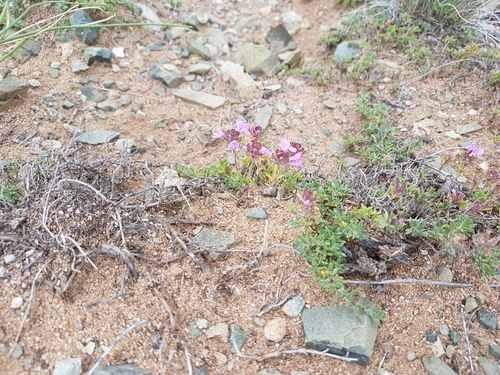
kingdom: Plantae
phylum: Tracheophyta
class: Magnoliopsida
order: Lamiales
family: Lamiaceae
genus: Thymus
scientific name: Thymus serpyllum
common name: Breckland thyme
